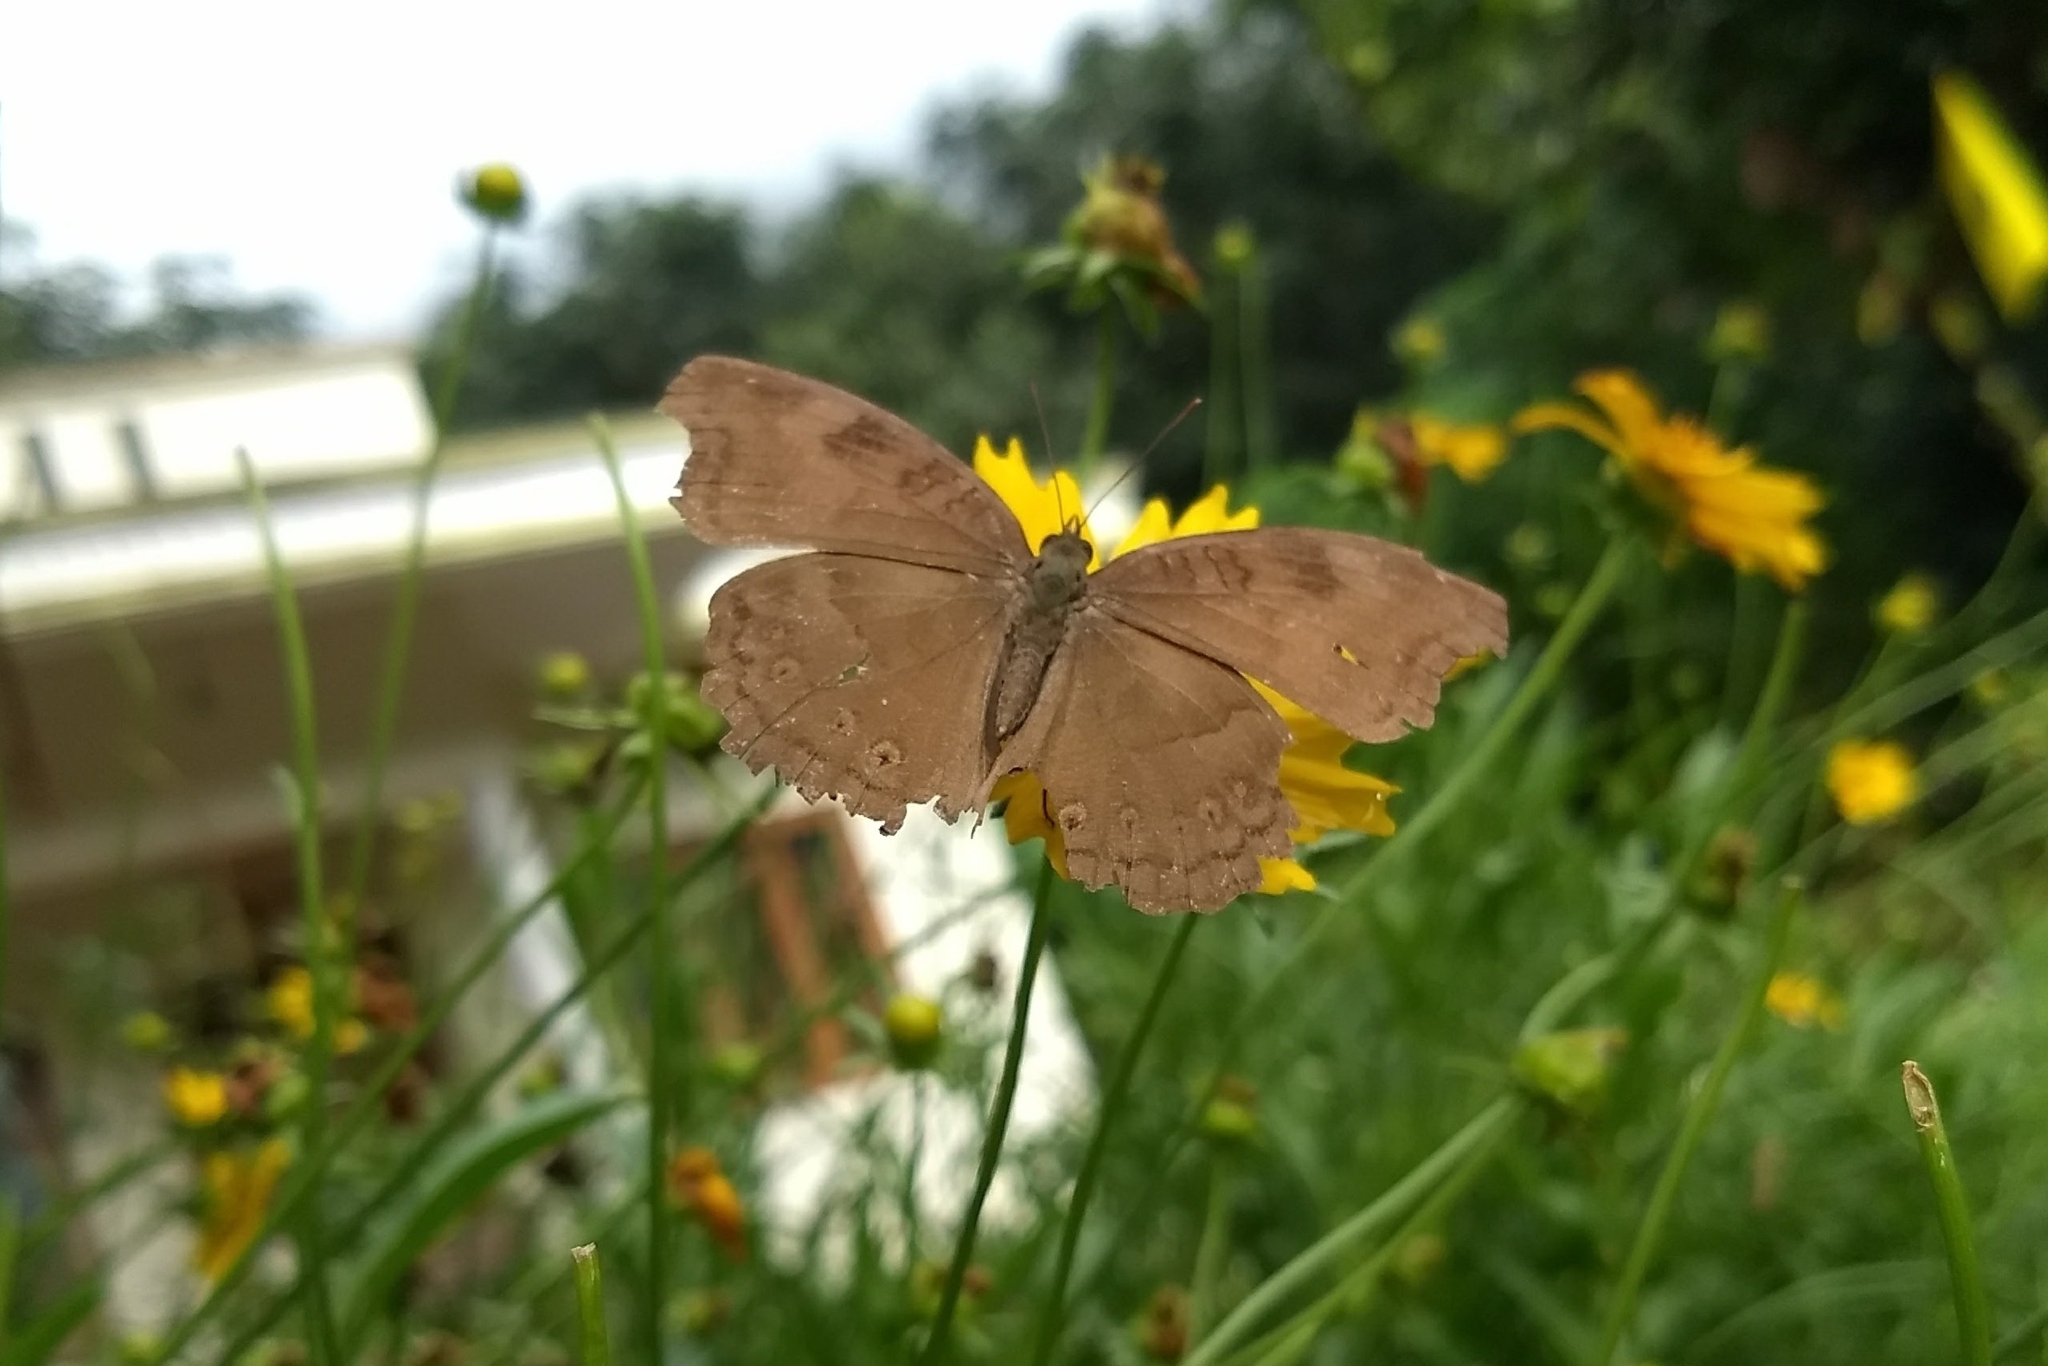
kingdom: Animalia
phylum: Arthropoda
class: Insecta
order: Lepidoptera
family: Nymphalidae
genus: Junonia
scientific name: Junonia iphita
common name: Chocolate pansy
